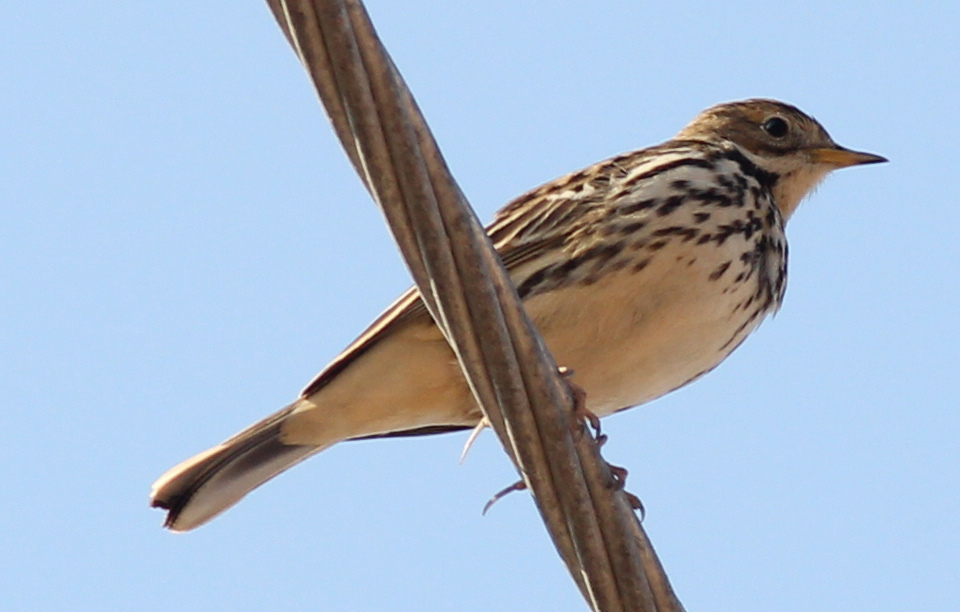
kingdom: Animalia
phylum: Chordata
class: Aves
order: Passeriformes
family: Motacillidae
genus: Anthus
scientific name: Anthus cervinus
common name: Red-throated pipit
